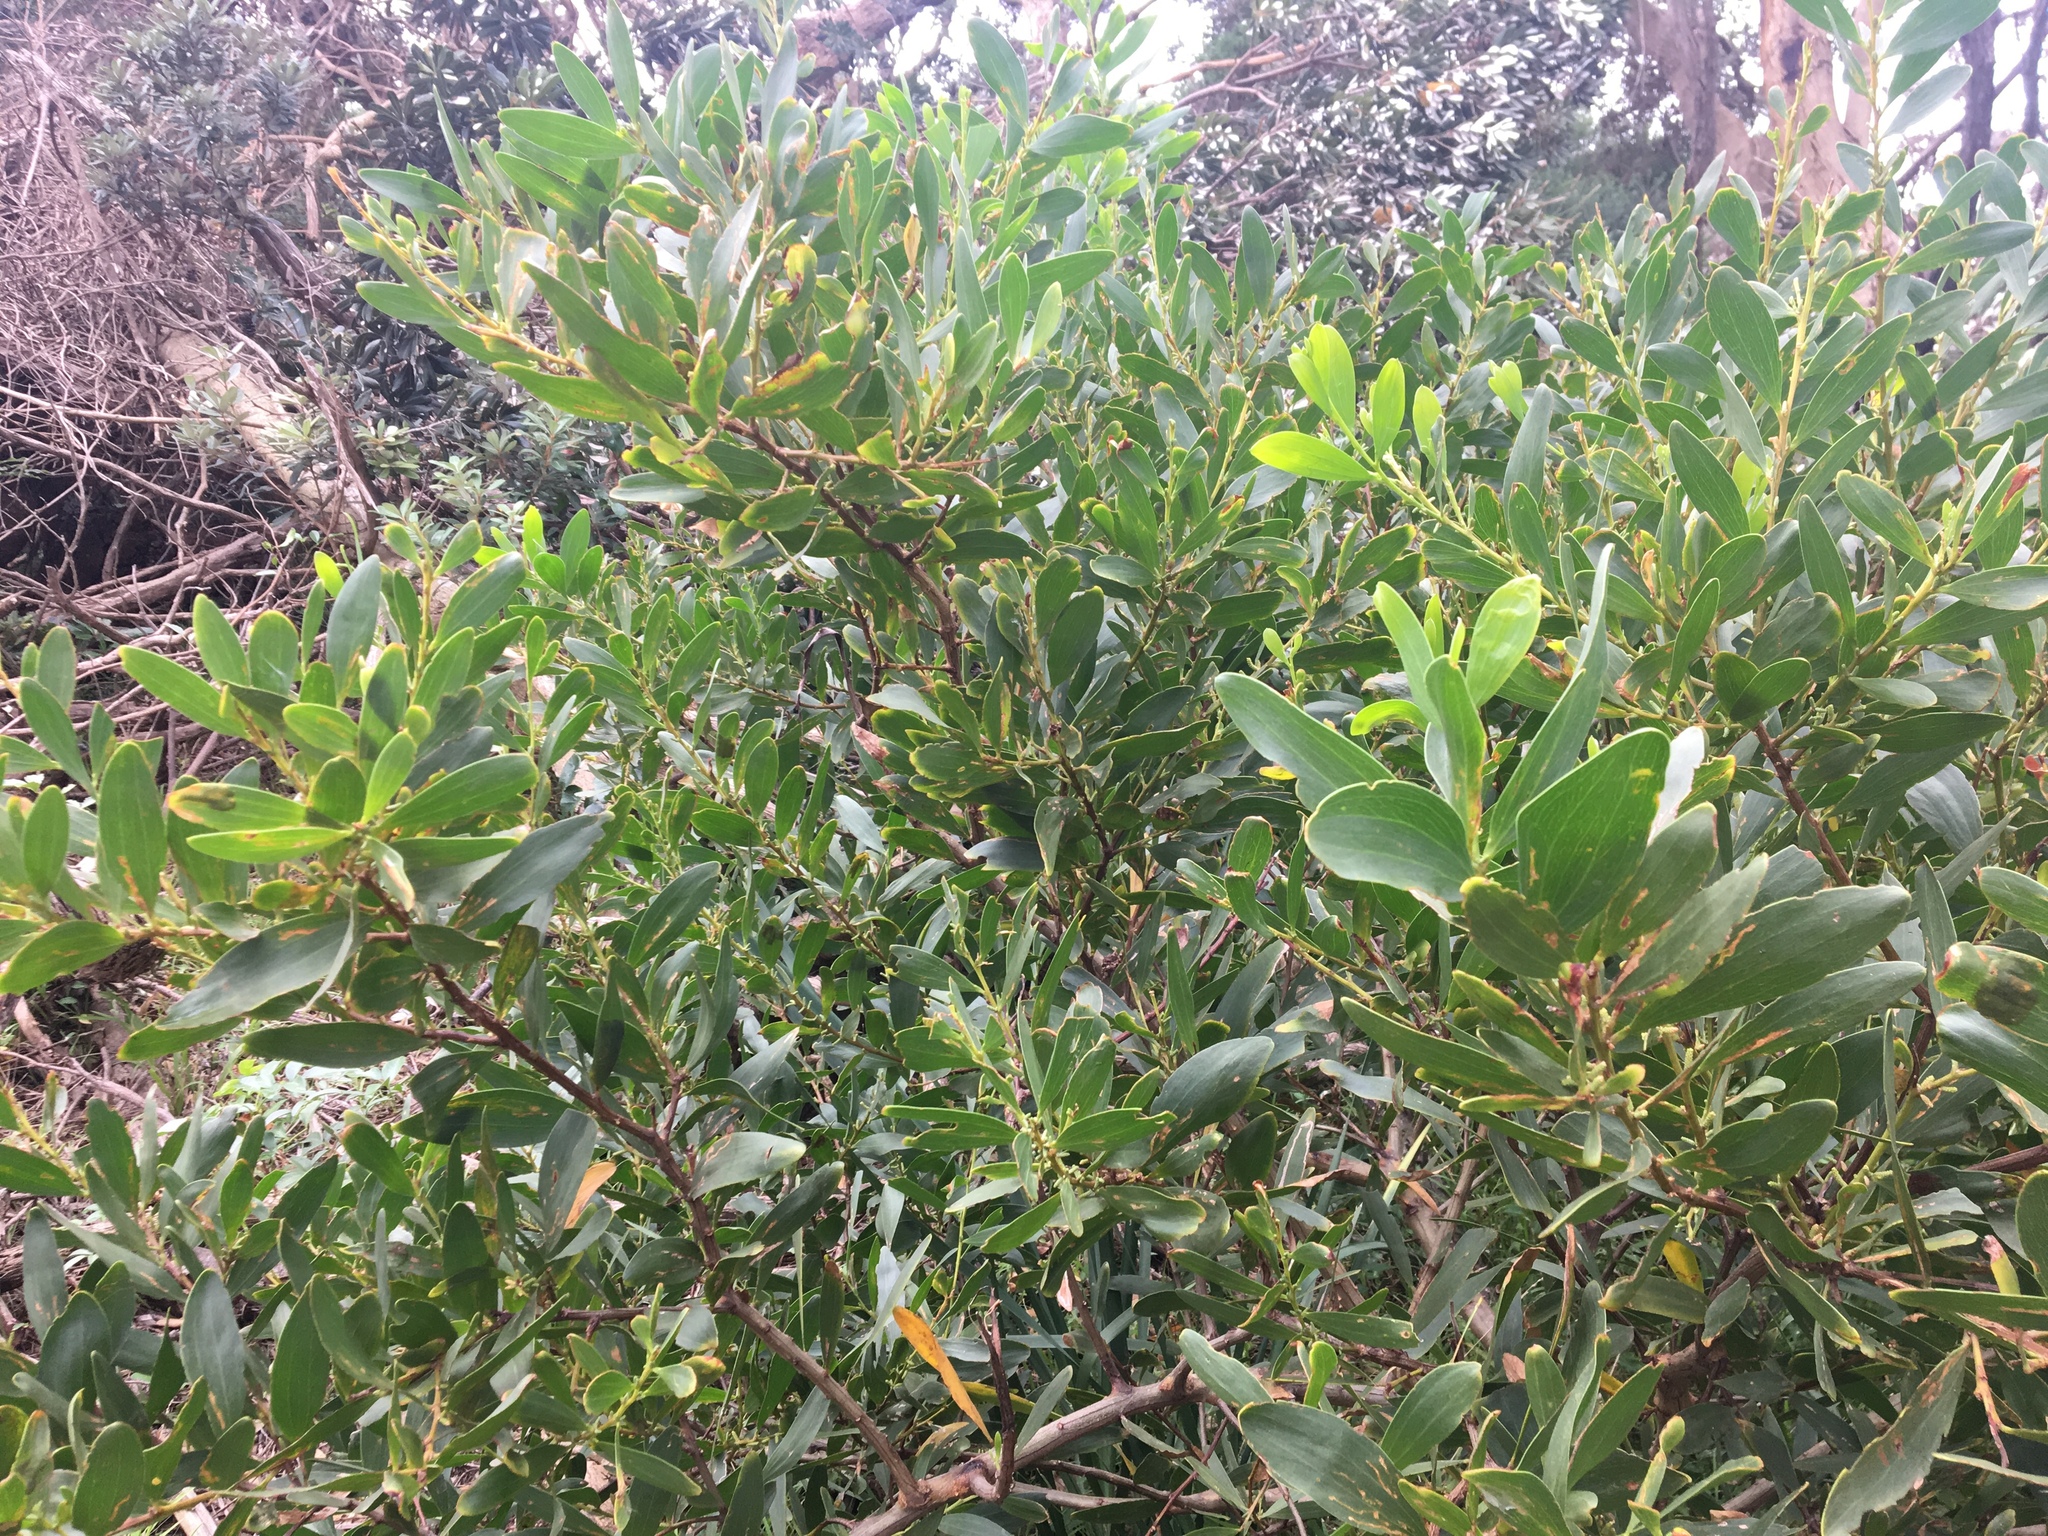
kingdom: Plantae
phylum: Tracheophyta
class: Magnoliopsida
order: Fabales
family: Fabaceae
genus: Acacia
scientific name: Acacia longifolia
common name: Sydney golden wattle
